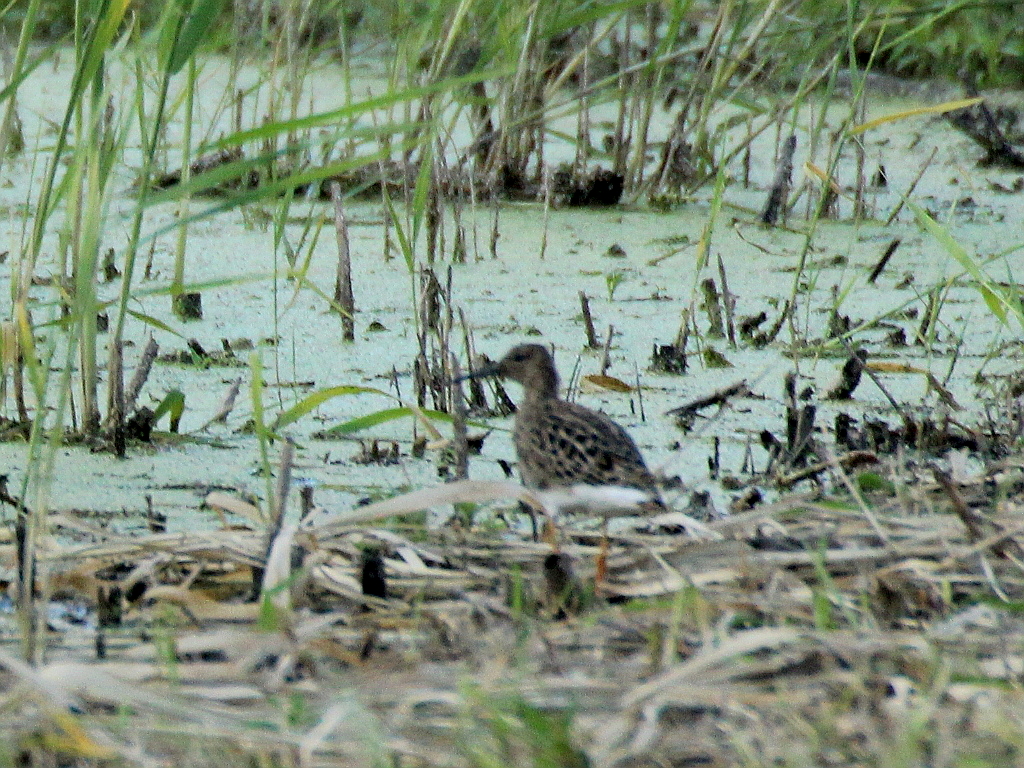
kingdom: Animalia
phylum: Chordata
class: Aves
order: Charadriiformes
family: Scolopacidae
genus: Calidris
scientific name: Calidris pugnax
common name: Ruff
